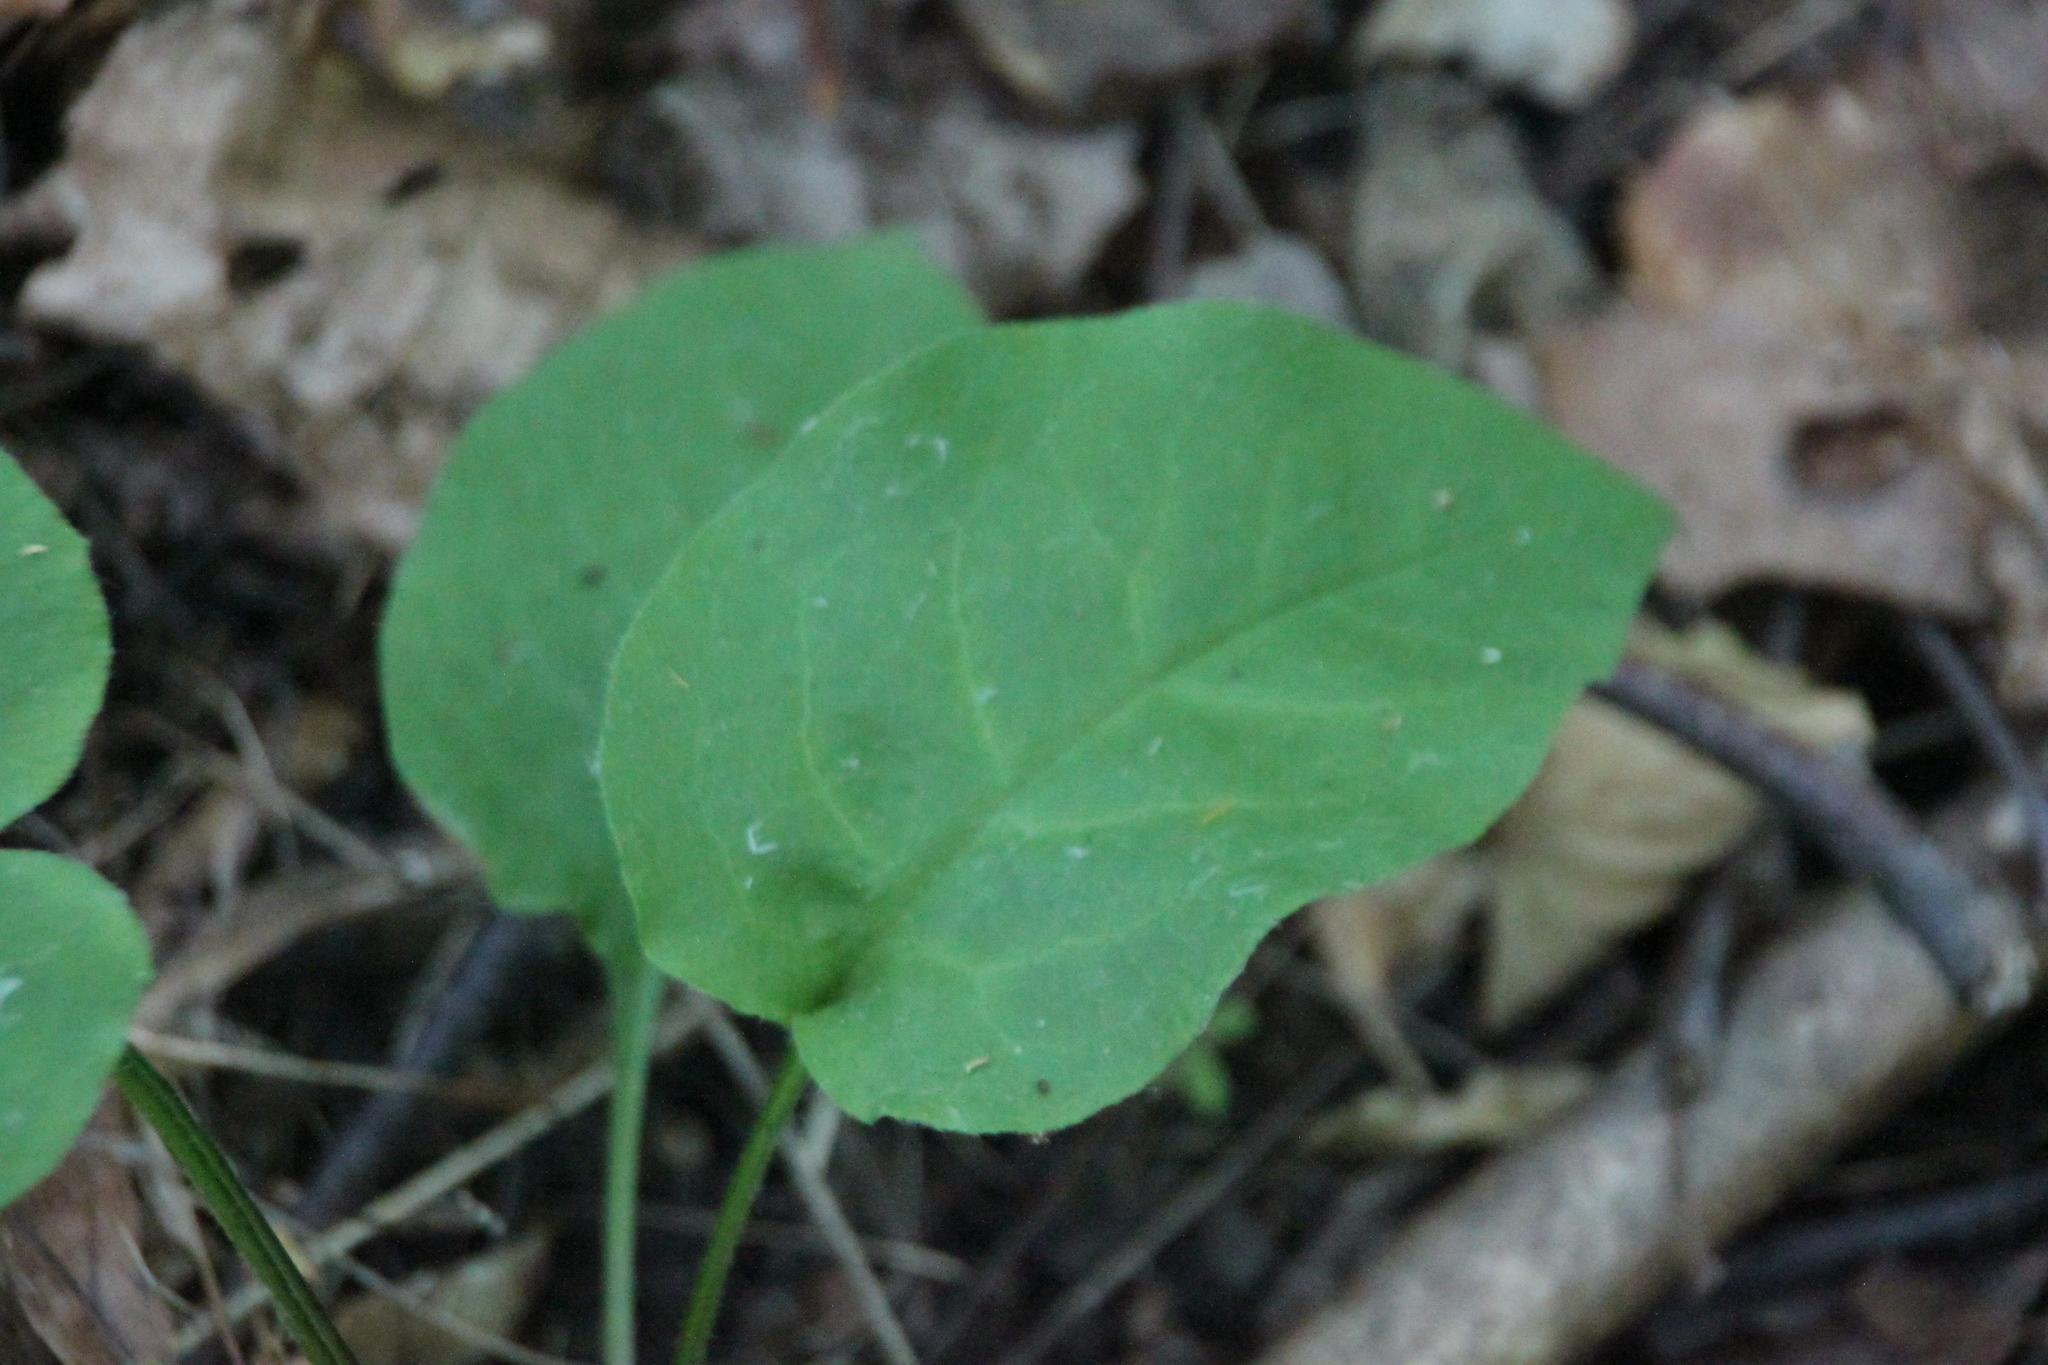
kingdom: Plantae
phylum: Tracheophyta
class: Magnoliopsida
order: Boraginales
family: Boraginaceae
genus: Pulmonaria
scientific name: Pulmonaria obscura
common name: Suffolk lungwort
